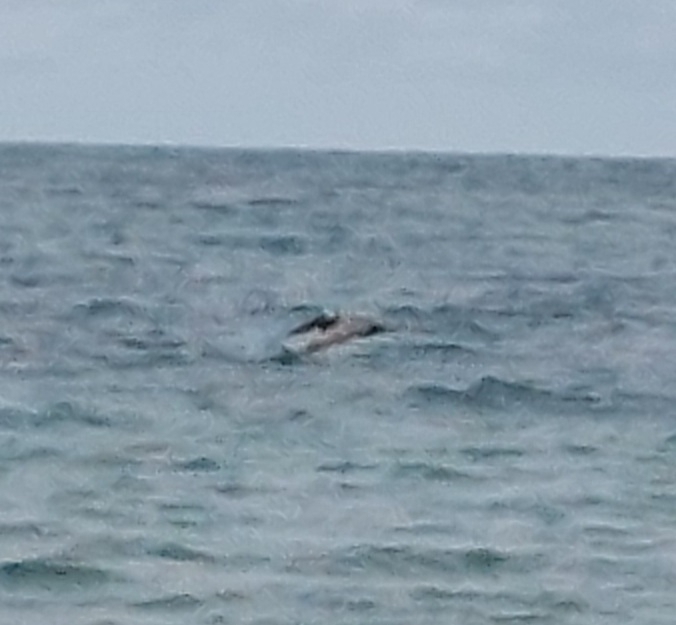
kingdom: Animalia
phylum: Chordata
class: Aves
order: Pelecaniformes
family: Pelecanidae
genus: Pelecanus
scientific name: Pelecanus occidentalis
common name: Brown pelican
